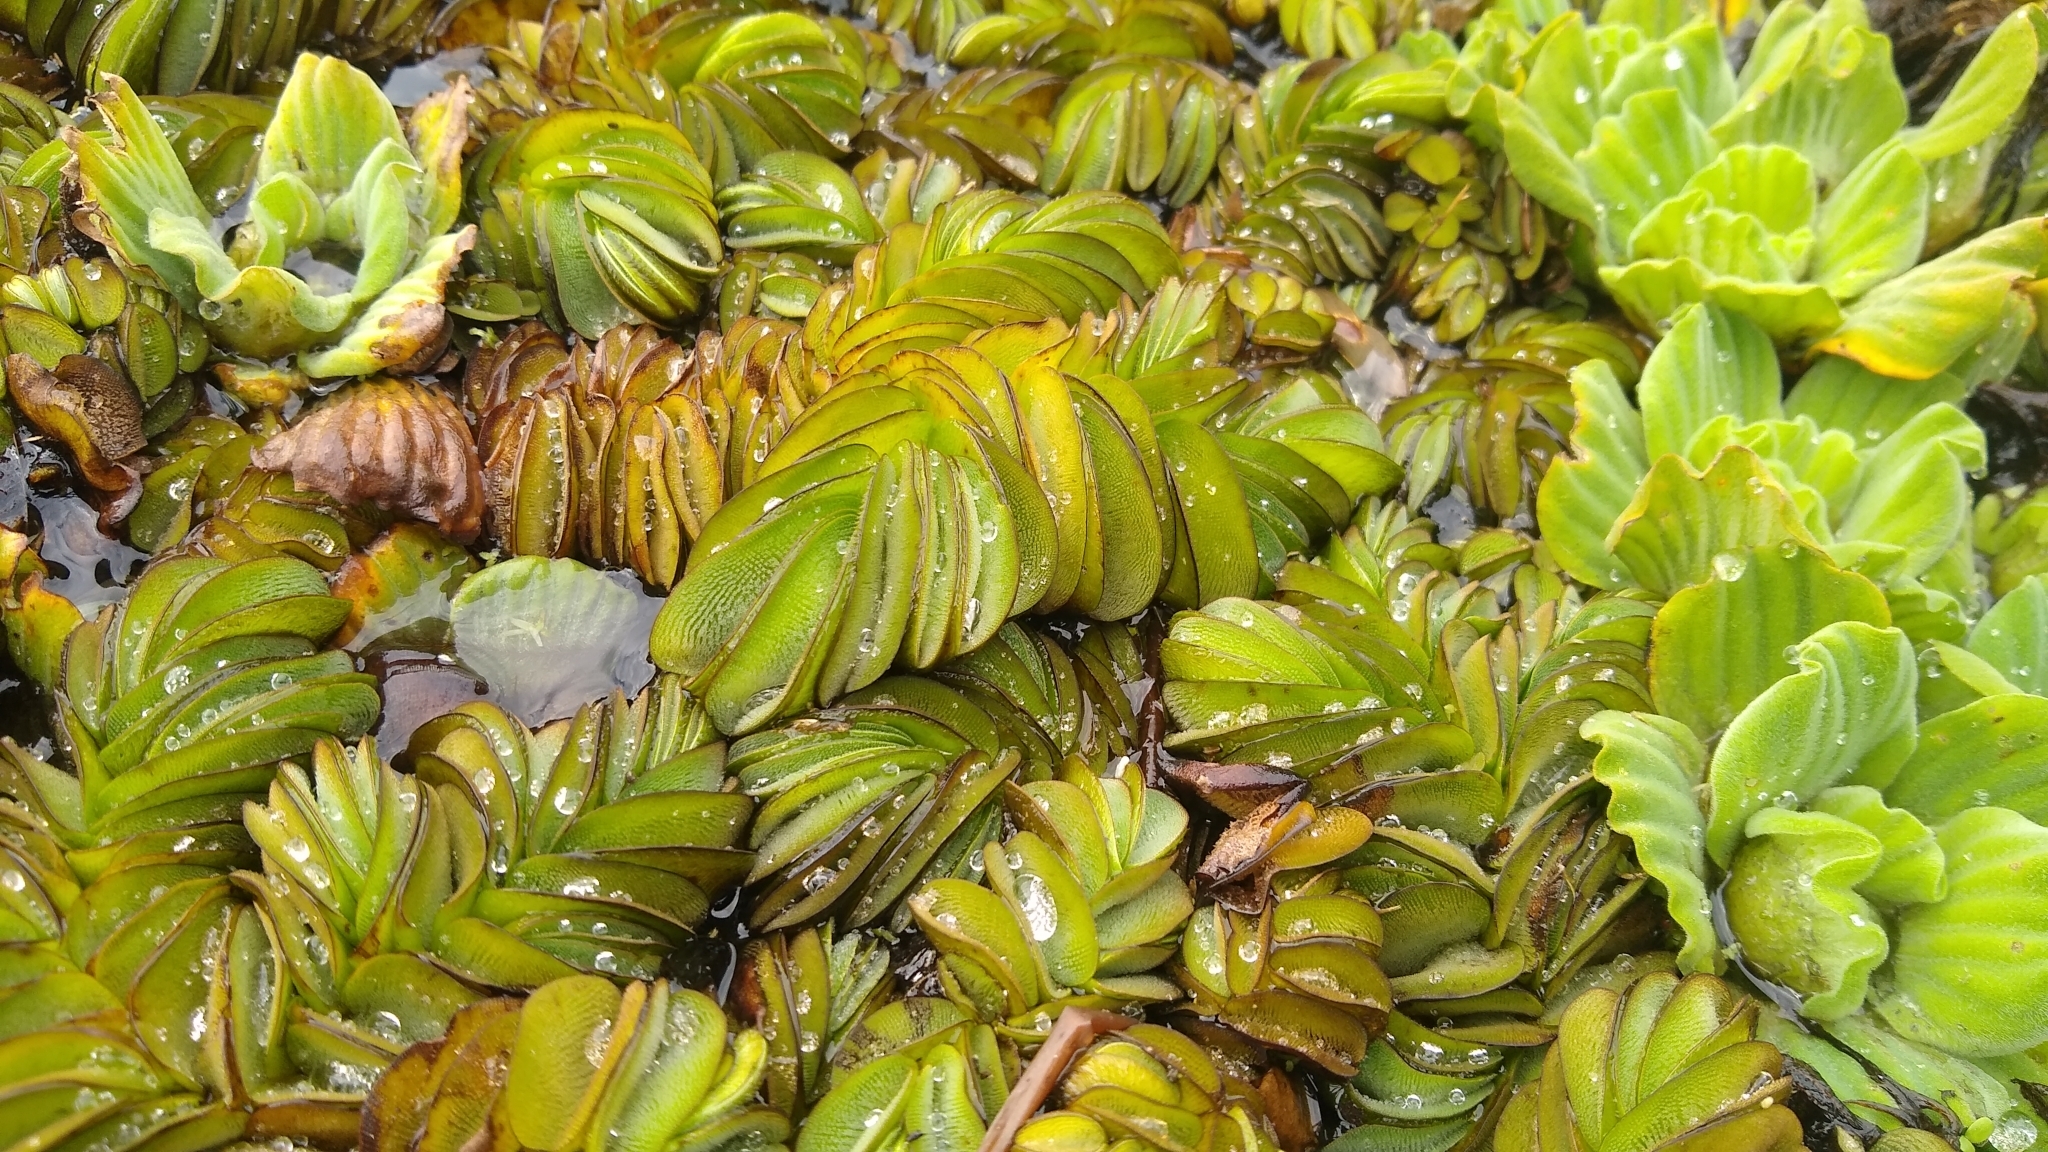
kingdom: Plantae
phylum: Tracheophyta
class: Polypodiopsida
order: Salviniales
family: Salviniaceae
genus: Salvinia
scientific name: Salvinia biloba
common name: Giant salvinia
